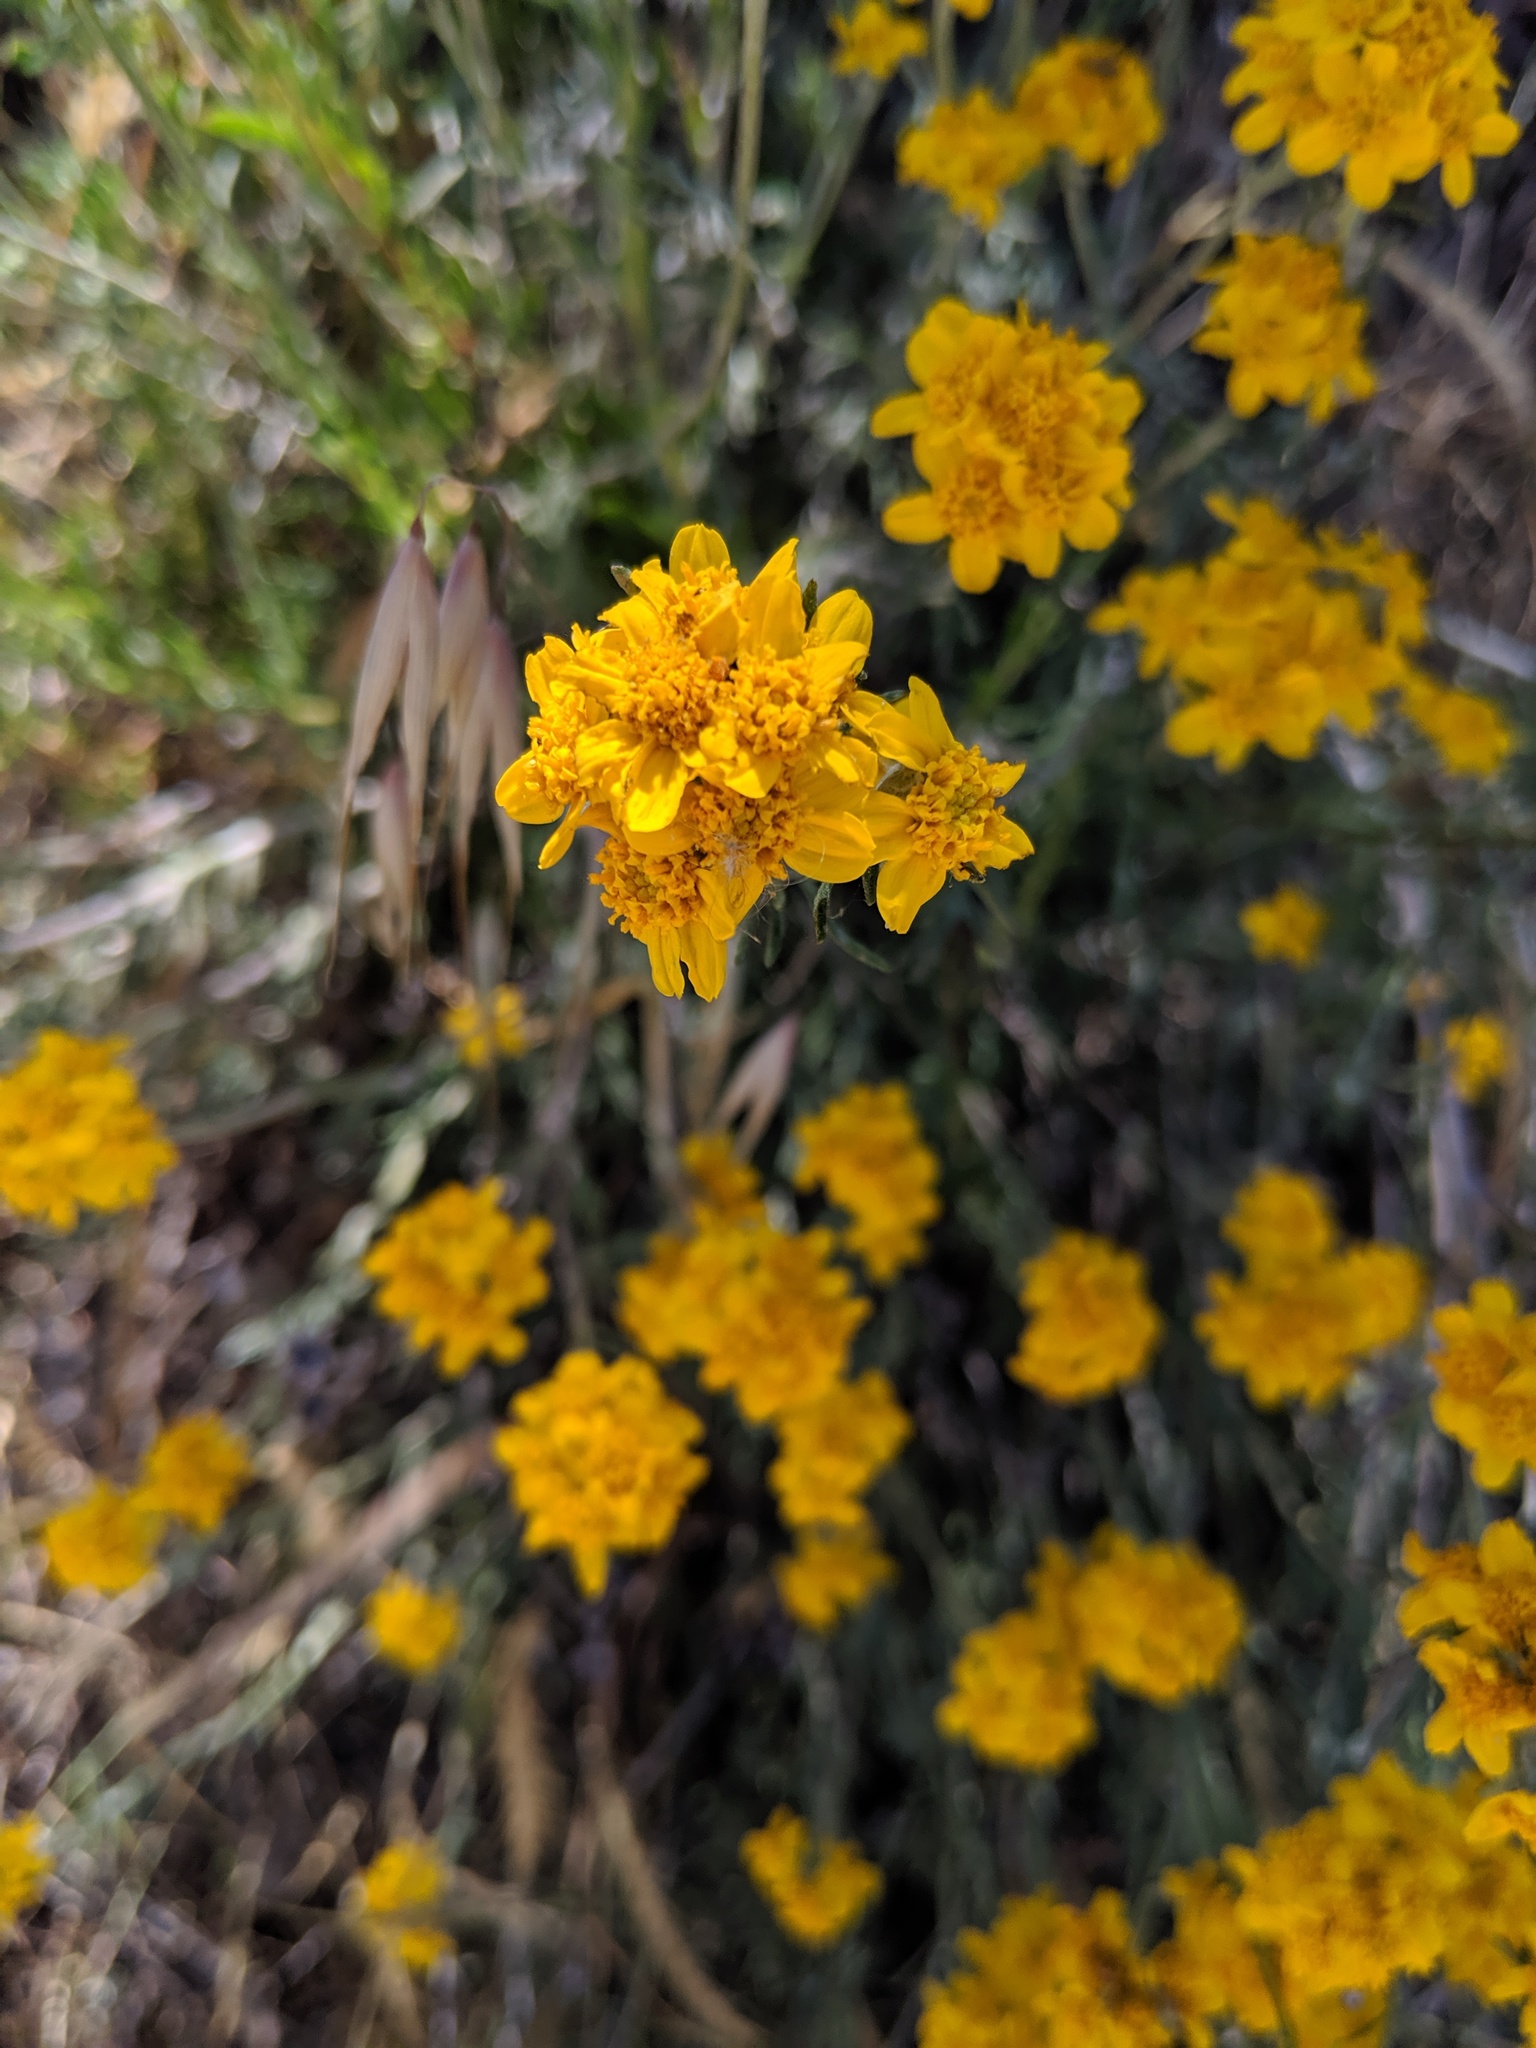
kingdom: Plantae
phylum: Tracheophyta
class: Magnoliopsida
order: Asterales
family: Asteraceae
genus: Eriophyllum
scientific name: Eriophyllum confertiflorum
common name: Golden-yarrow
